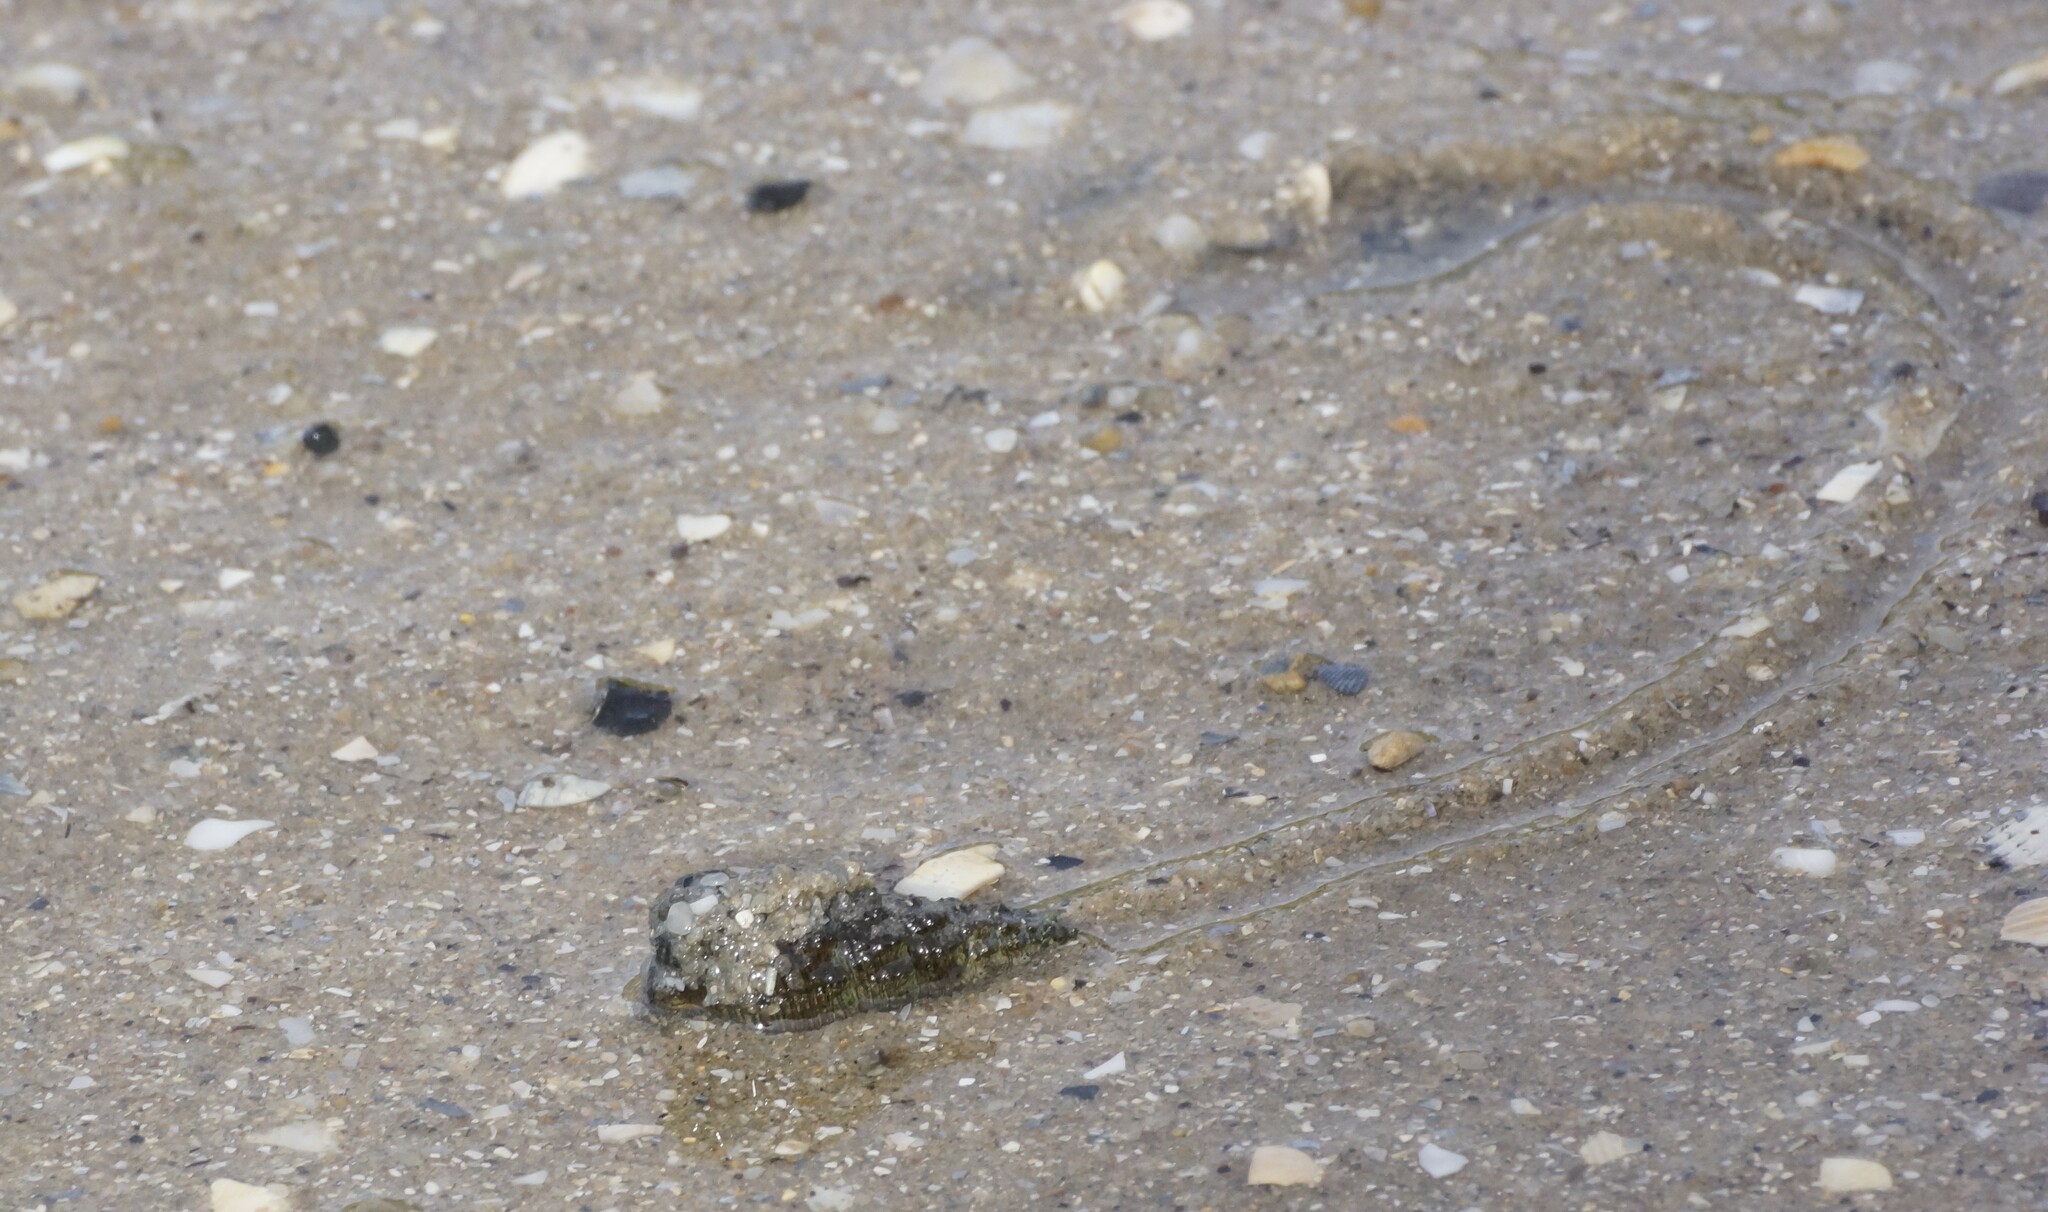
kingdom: Animalia
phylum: Mollusca
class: Gastropoda
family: Batillariidae
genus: Batillaria
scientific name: Batillaria australis
